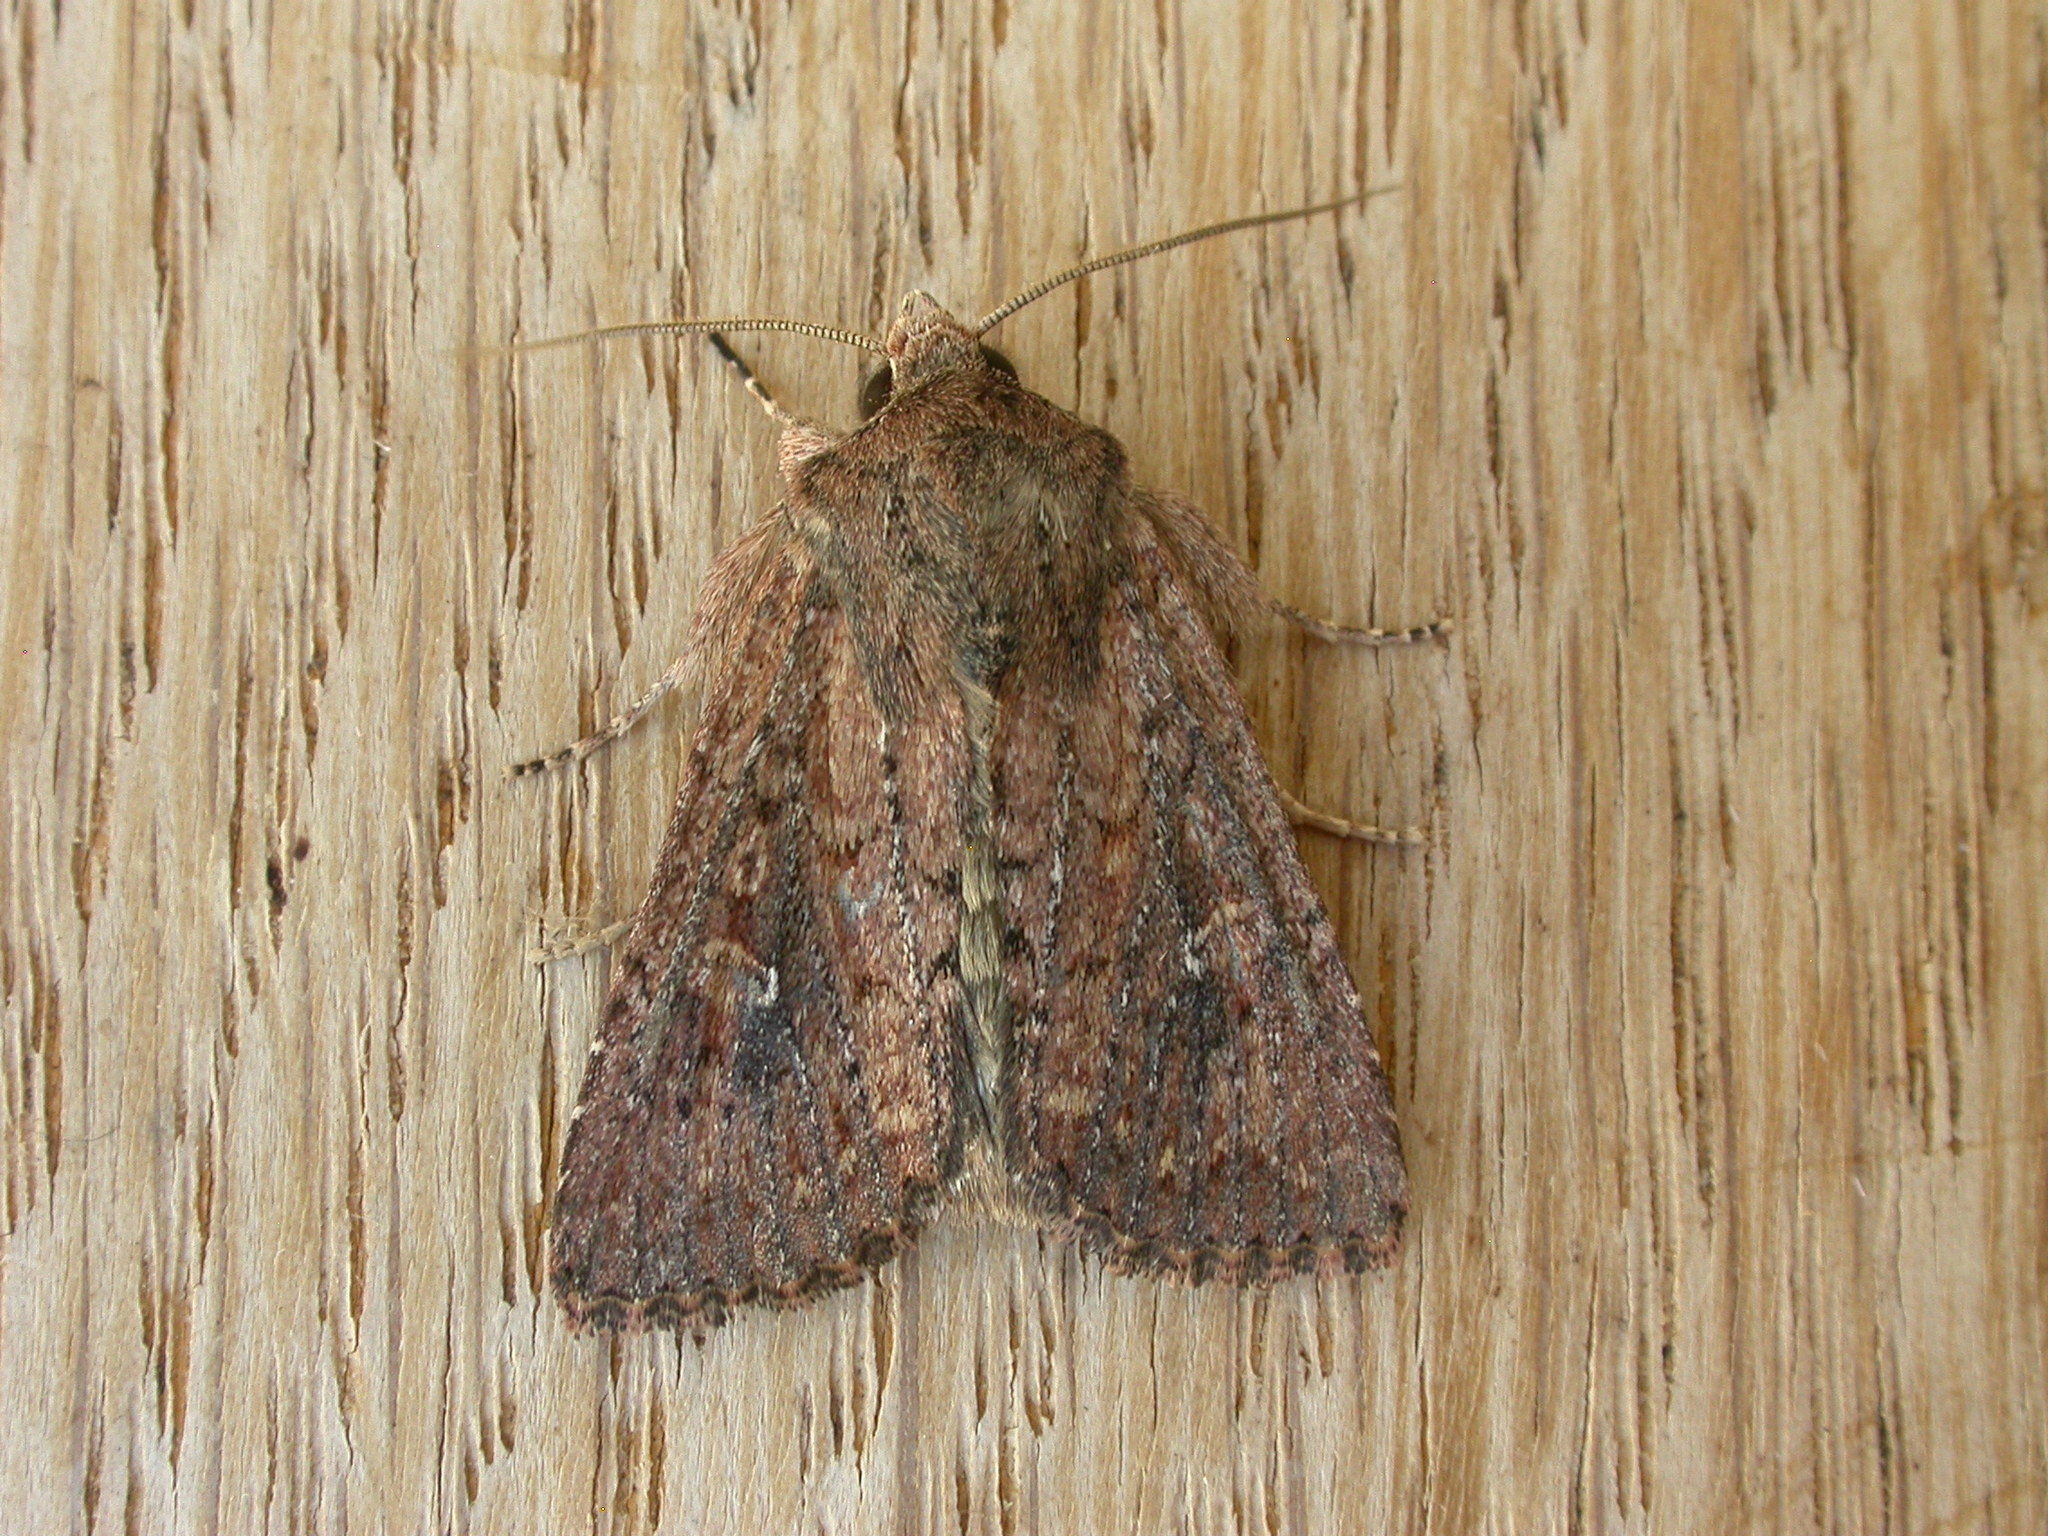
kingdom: Animalia
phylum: Arthropoda
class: Insecta
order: Lepidoptera
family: Noctuidae
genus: Dasygaster
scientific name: Dasygaster padockina
